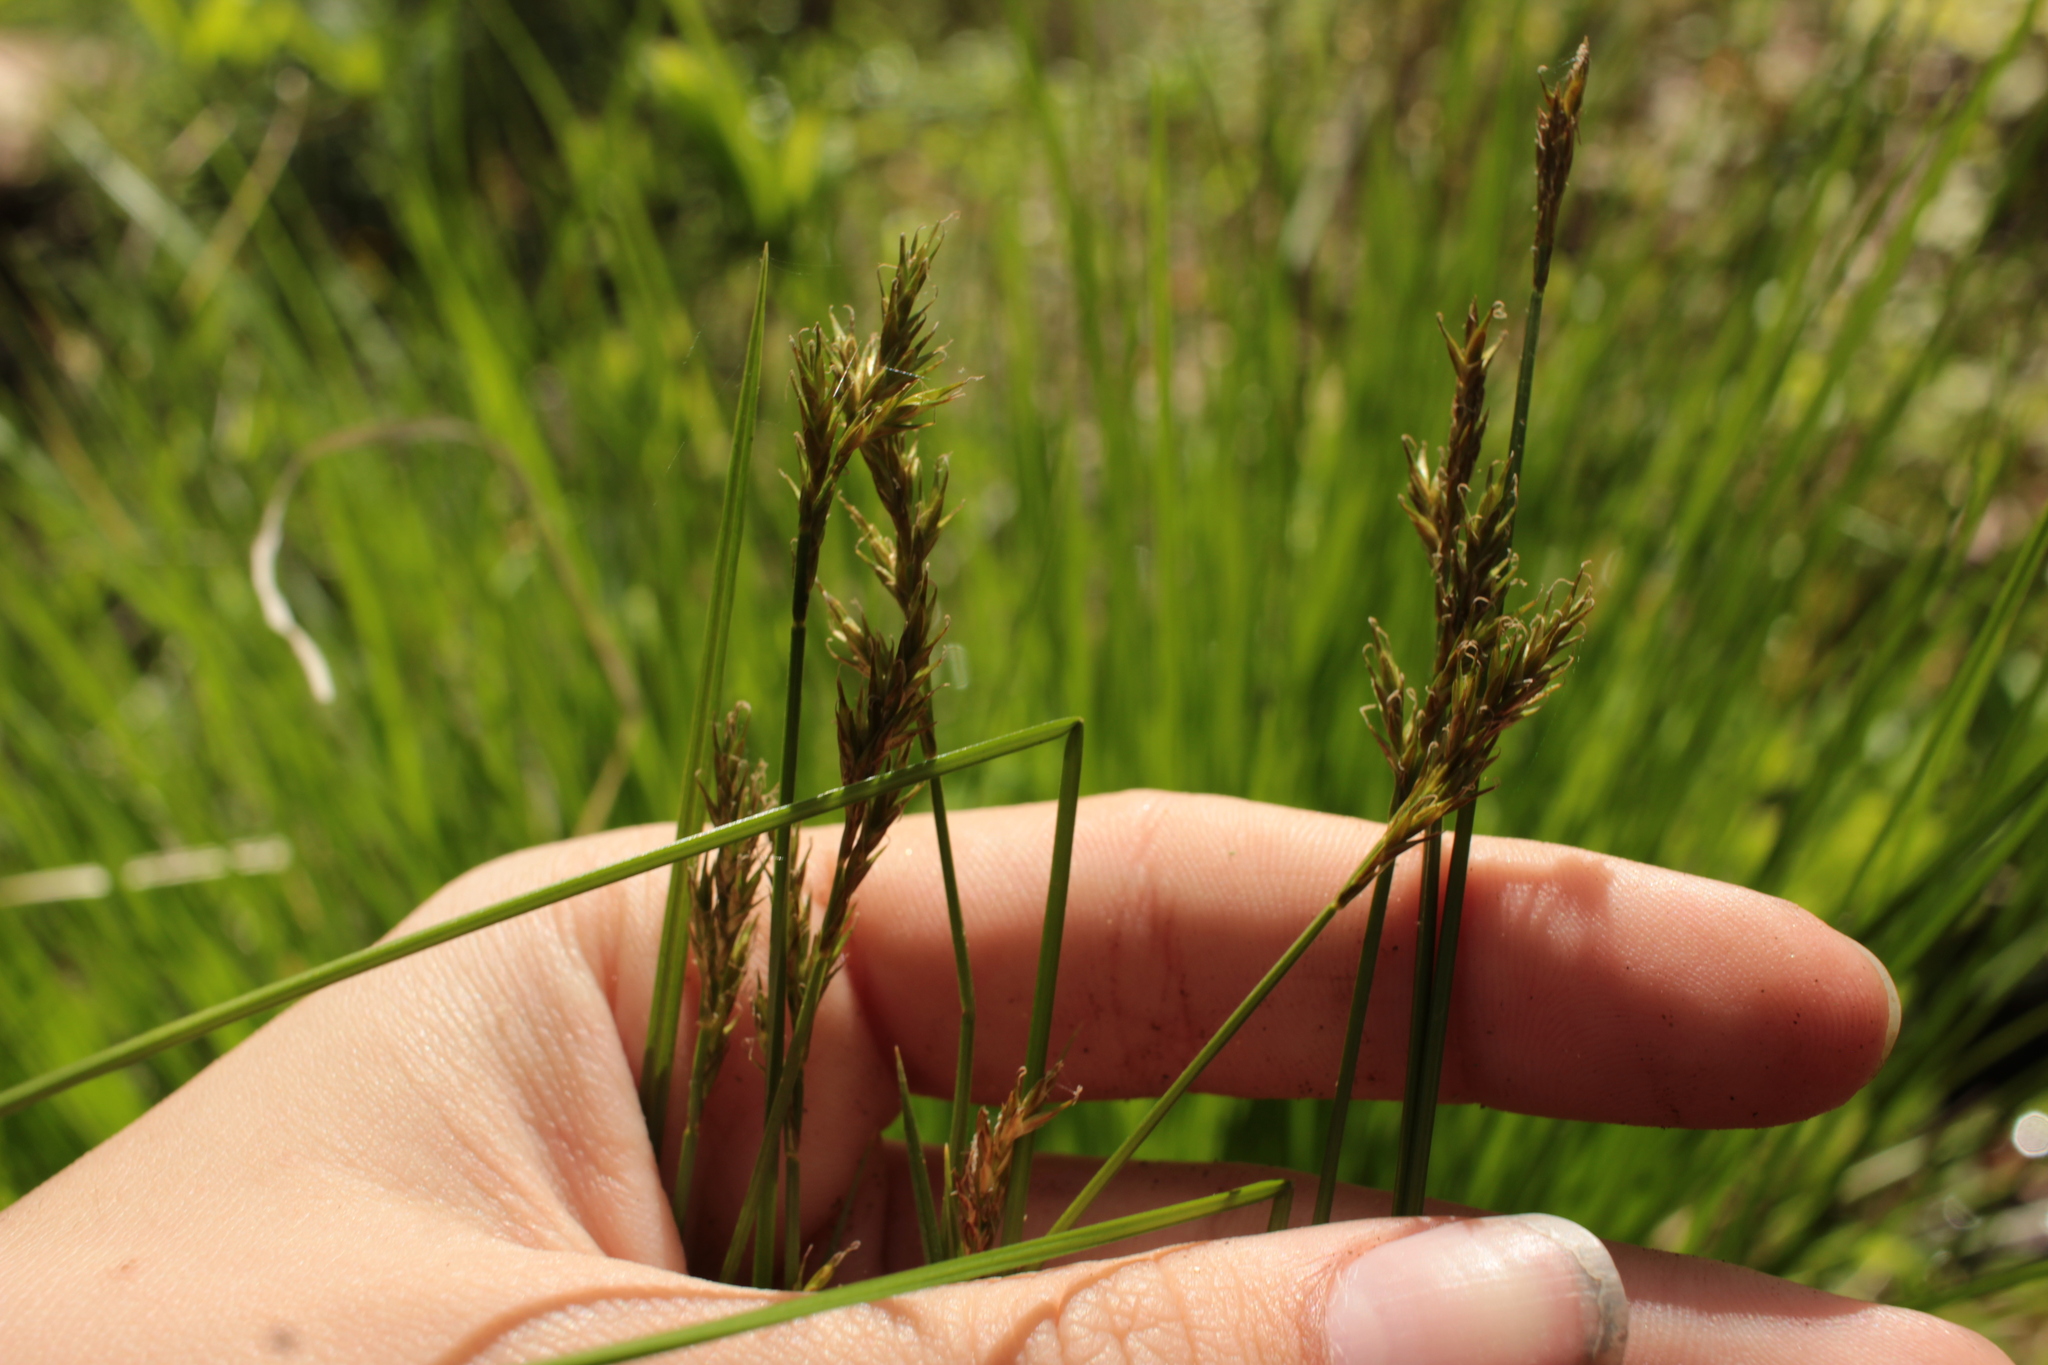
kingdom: Plantae
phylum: Tracheophyta
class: Liliopsida
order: Poales
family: Cyperaceae
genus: Carex
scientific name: Carex bromoides
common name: Brome hummock sedge
